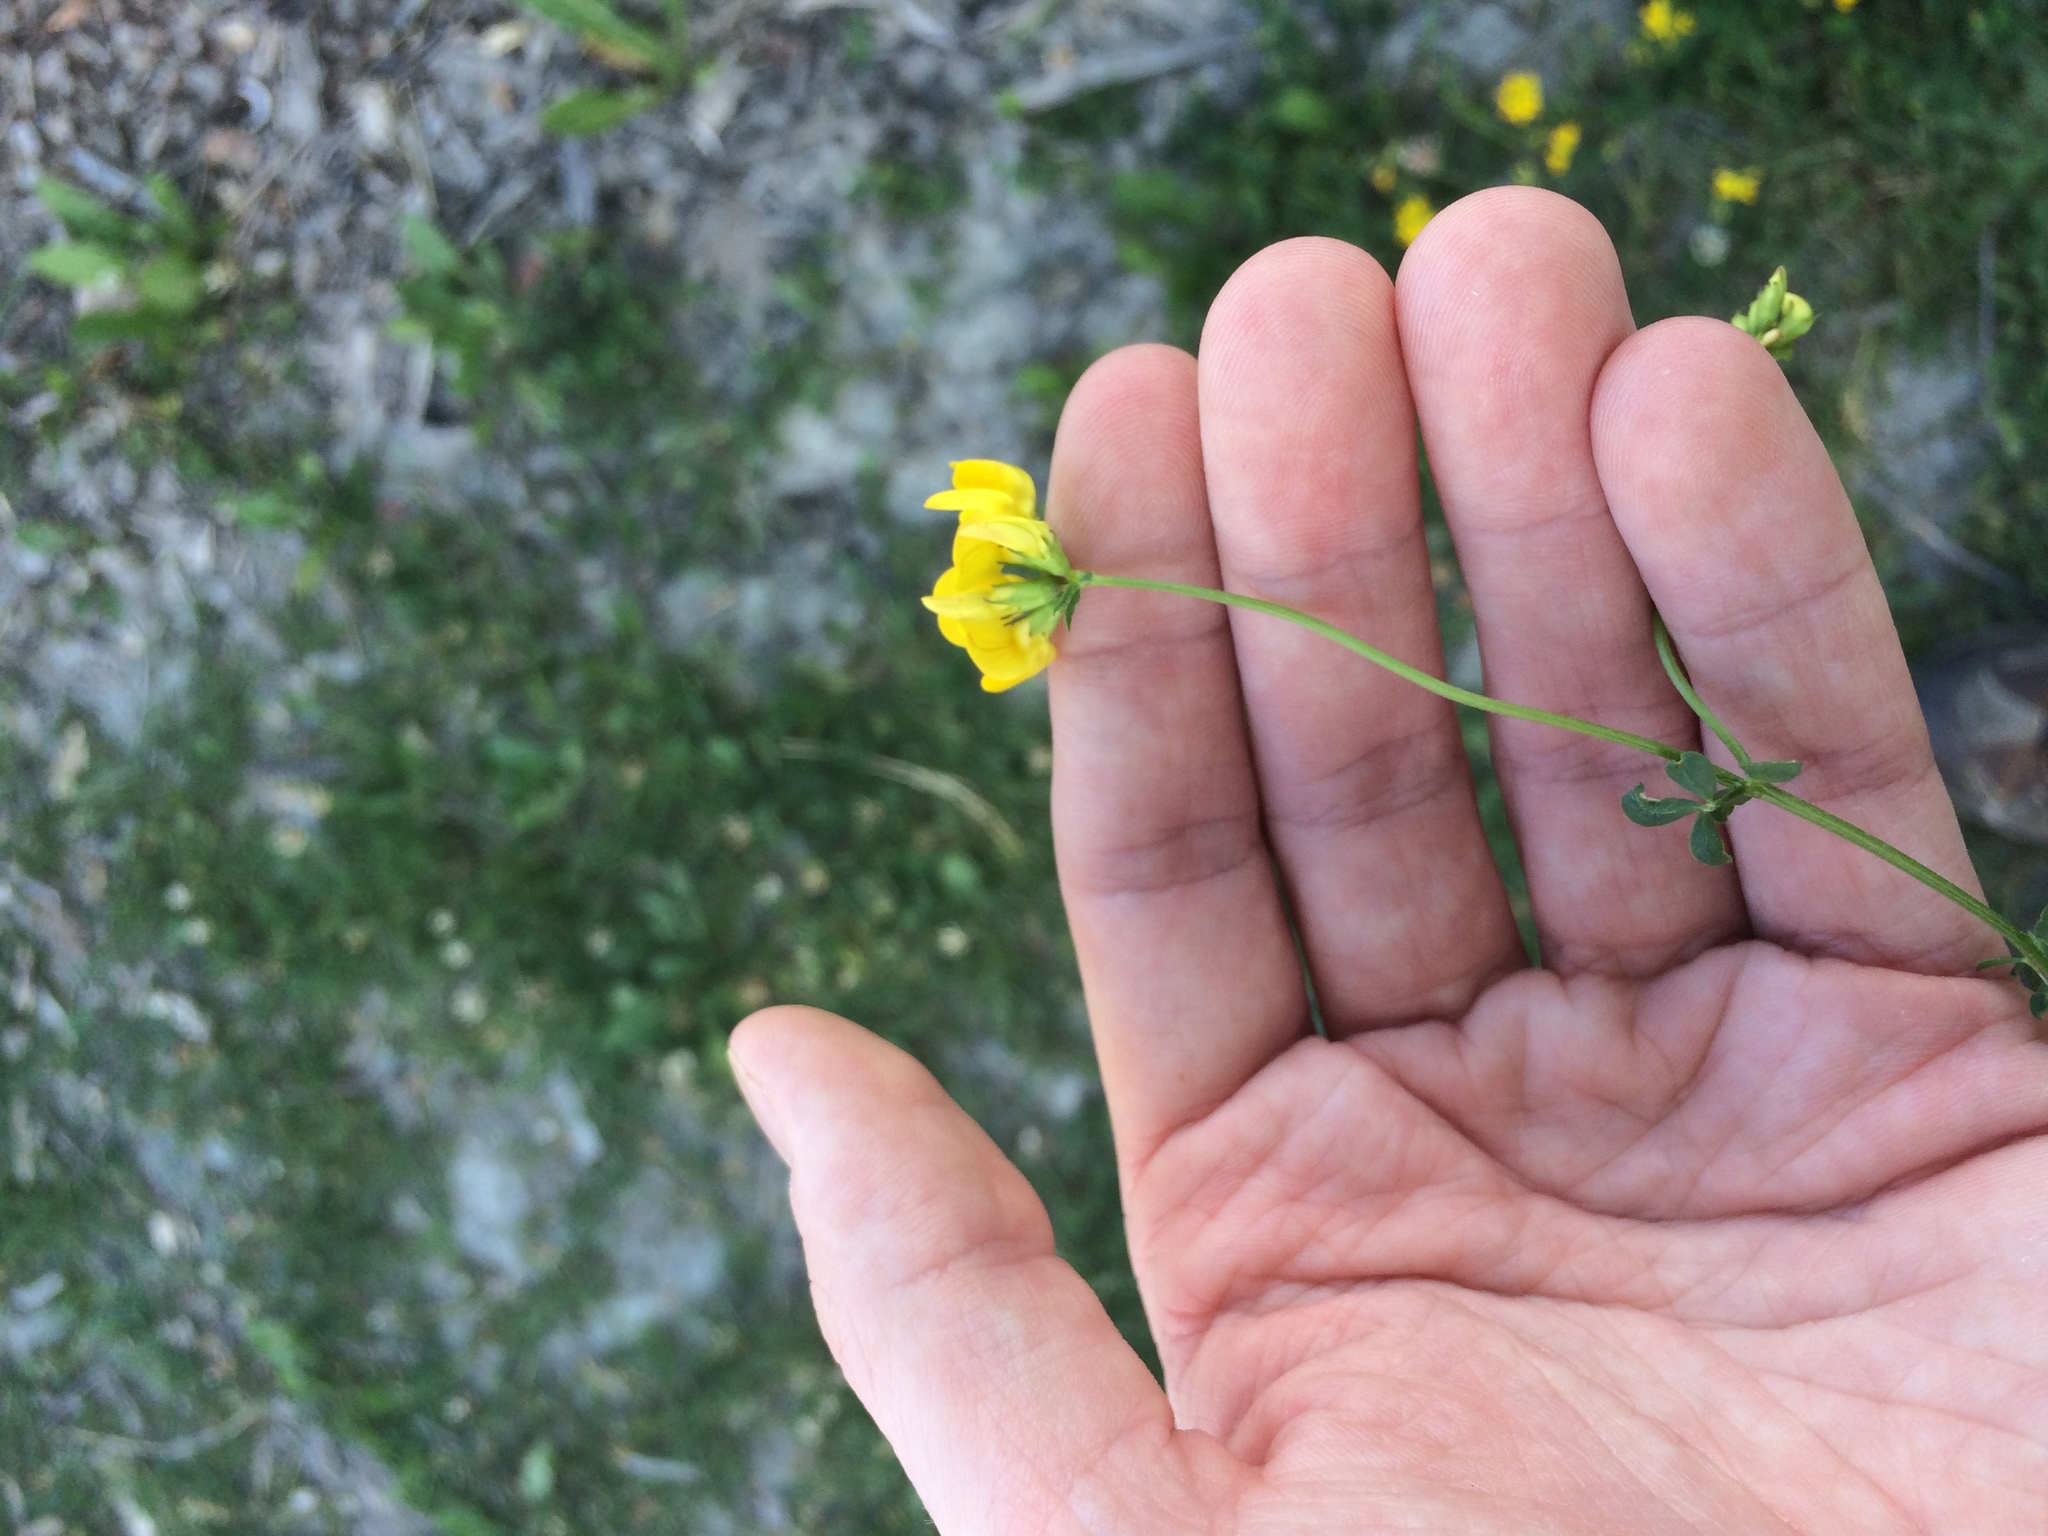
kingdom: Plantae
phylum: Tracheophyta
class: Magnoliopsida
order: Fabales
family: Fabaceae
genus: Lotus
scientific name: Lotus corniculatus
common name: Common bird's-foot-trefoil
